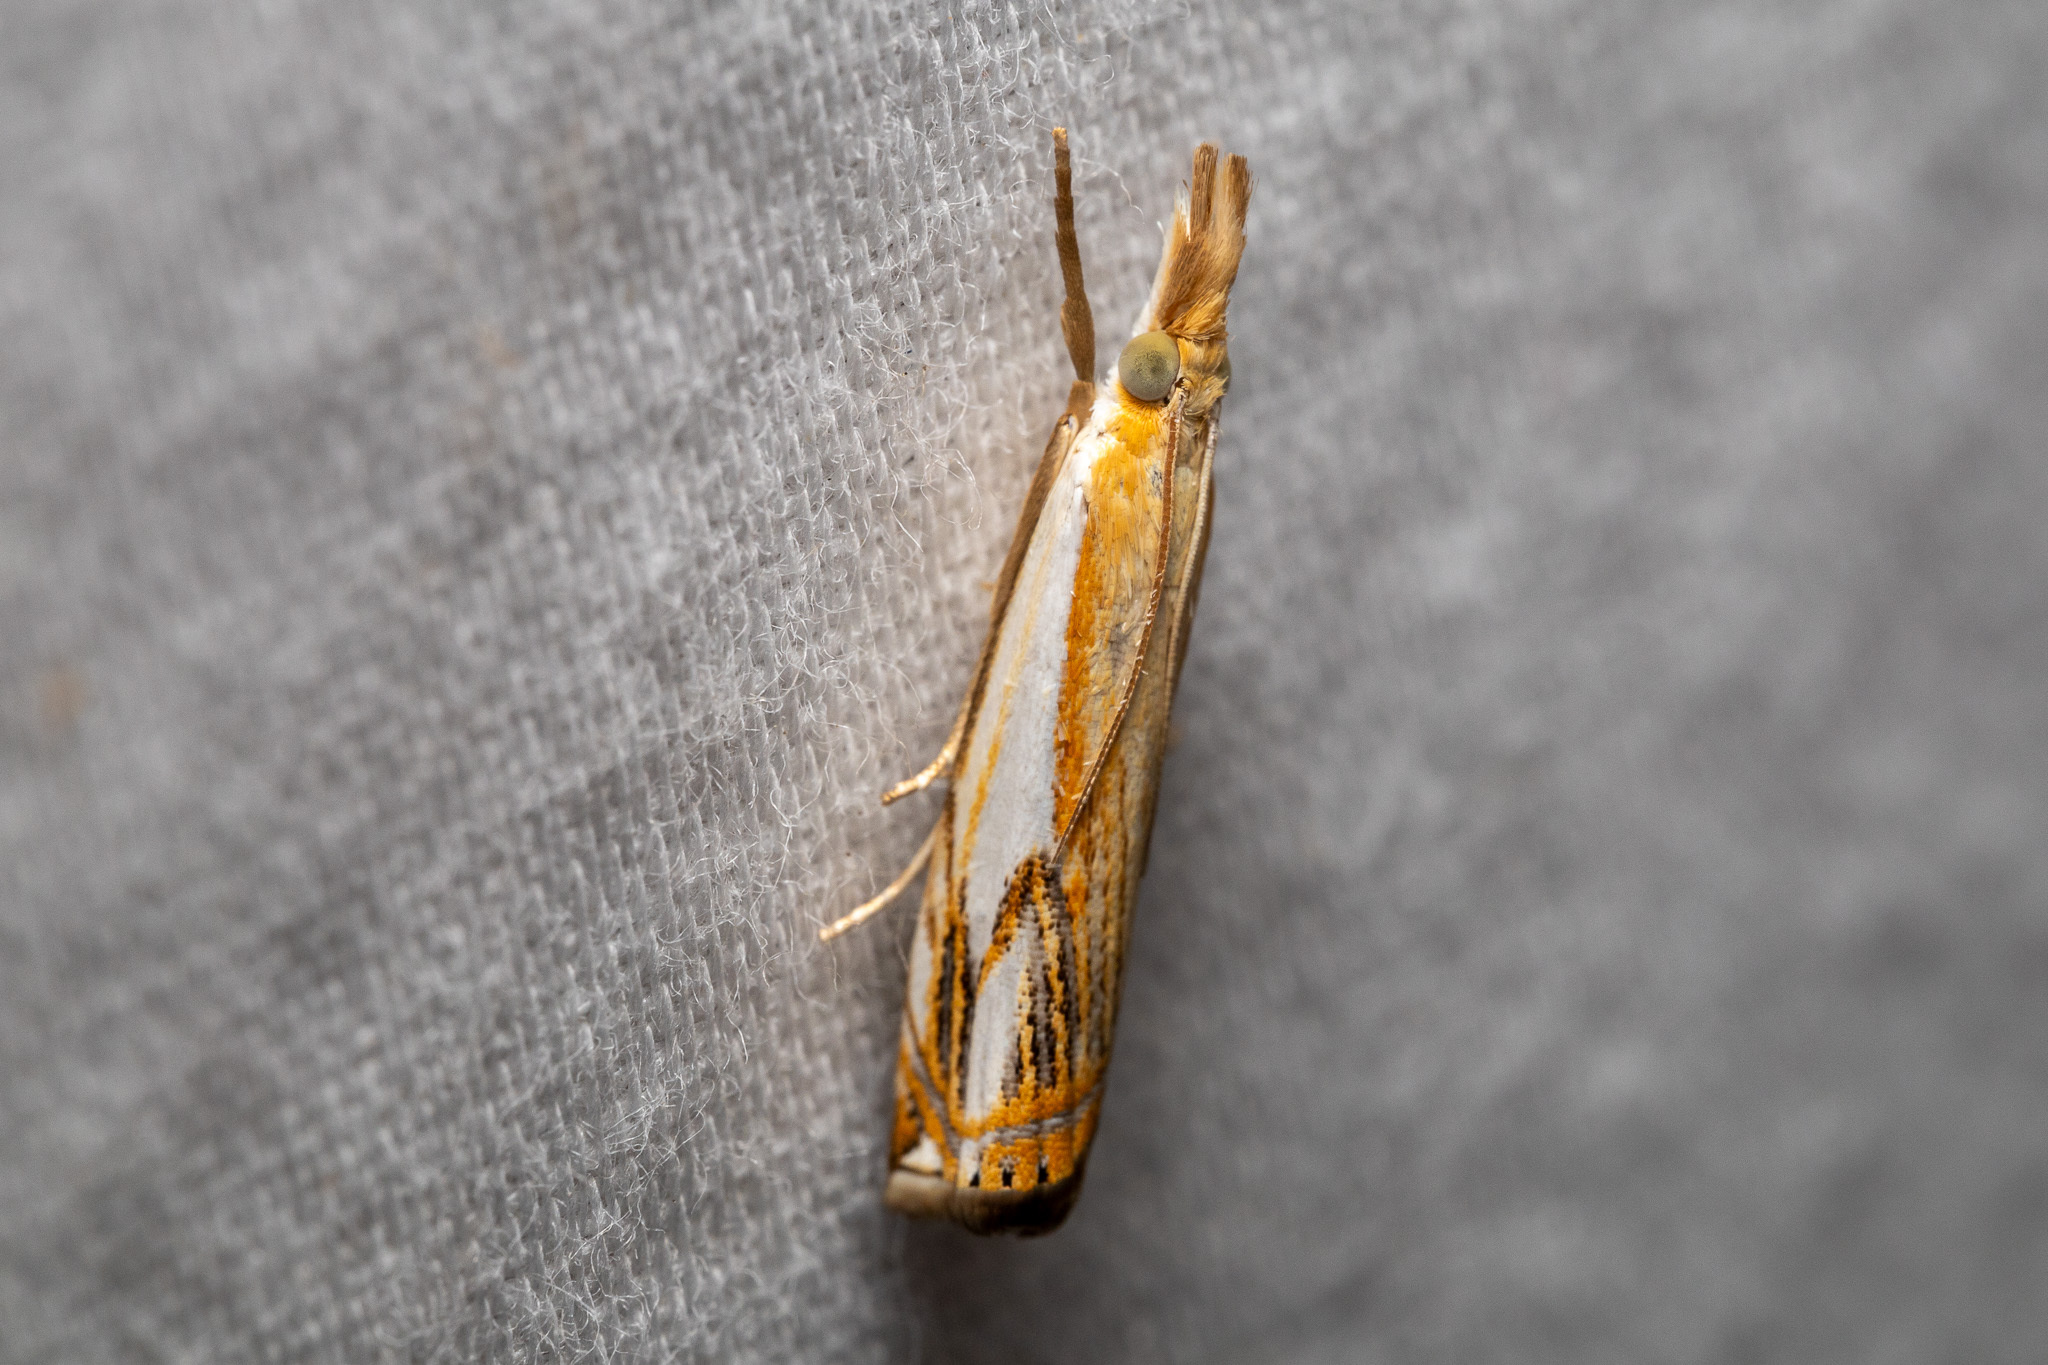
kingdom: Animalia
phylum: Arthropoda
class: Insecta
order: Lepidoptera
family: Crambidae
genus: Crambus
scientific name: Crambus agitatellus
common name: Double-banded grass-veneer
